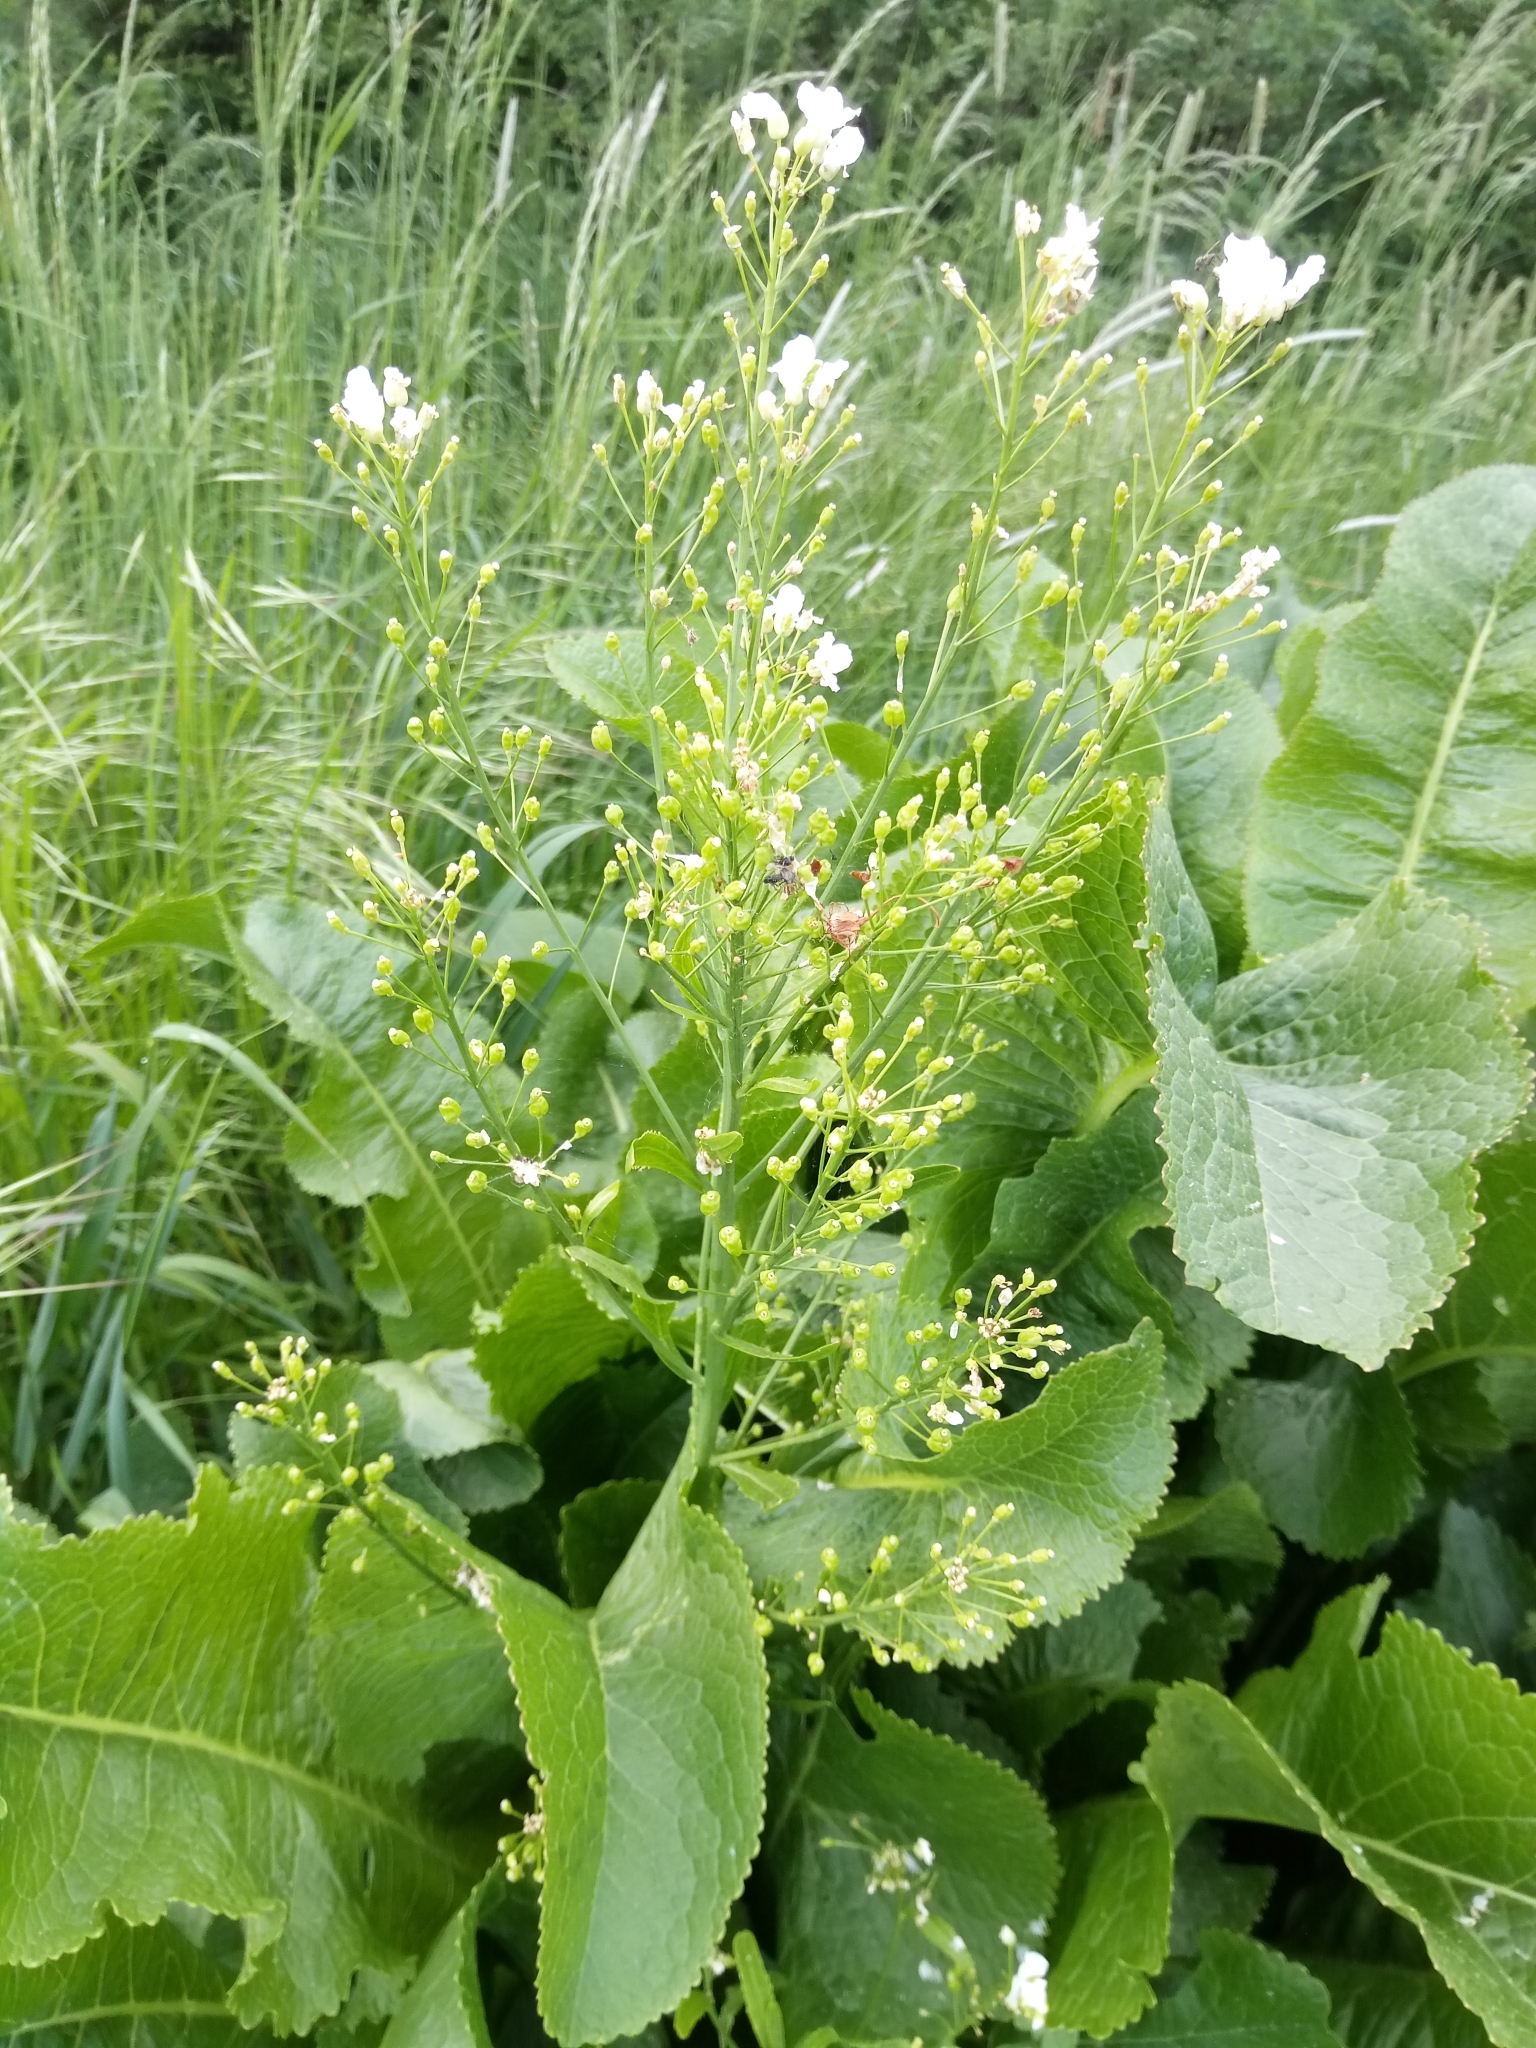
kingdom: Plantae
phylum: Tracheophyta
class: Magnoliopsida
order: Brassicales
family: Brassicaceae
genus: Armoracia
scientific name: Armoracia rusticana
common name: Horseradish
